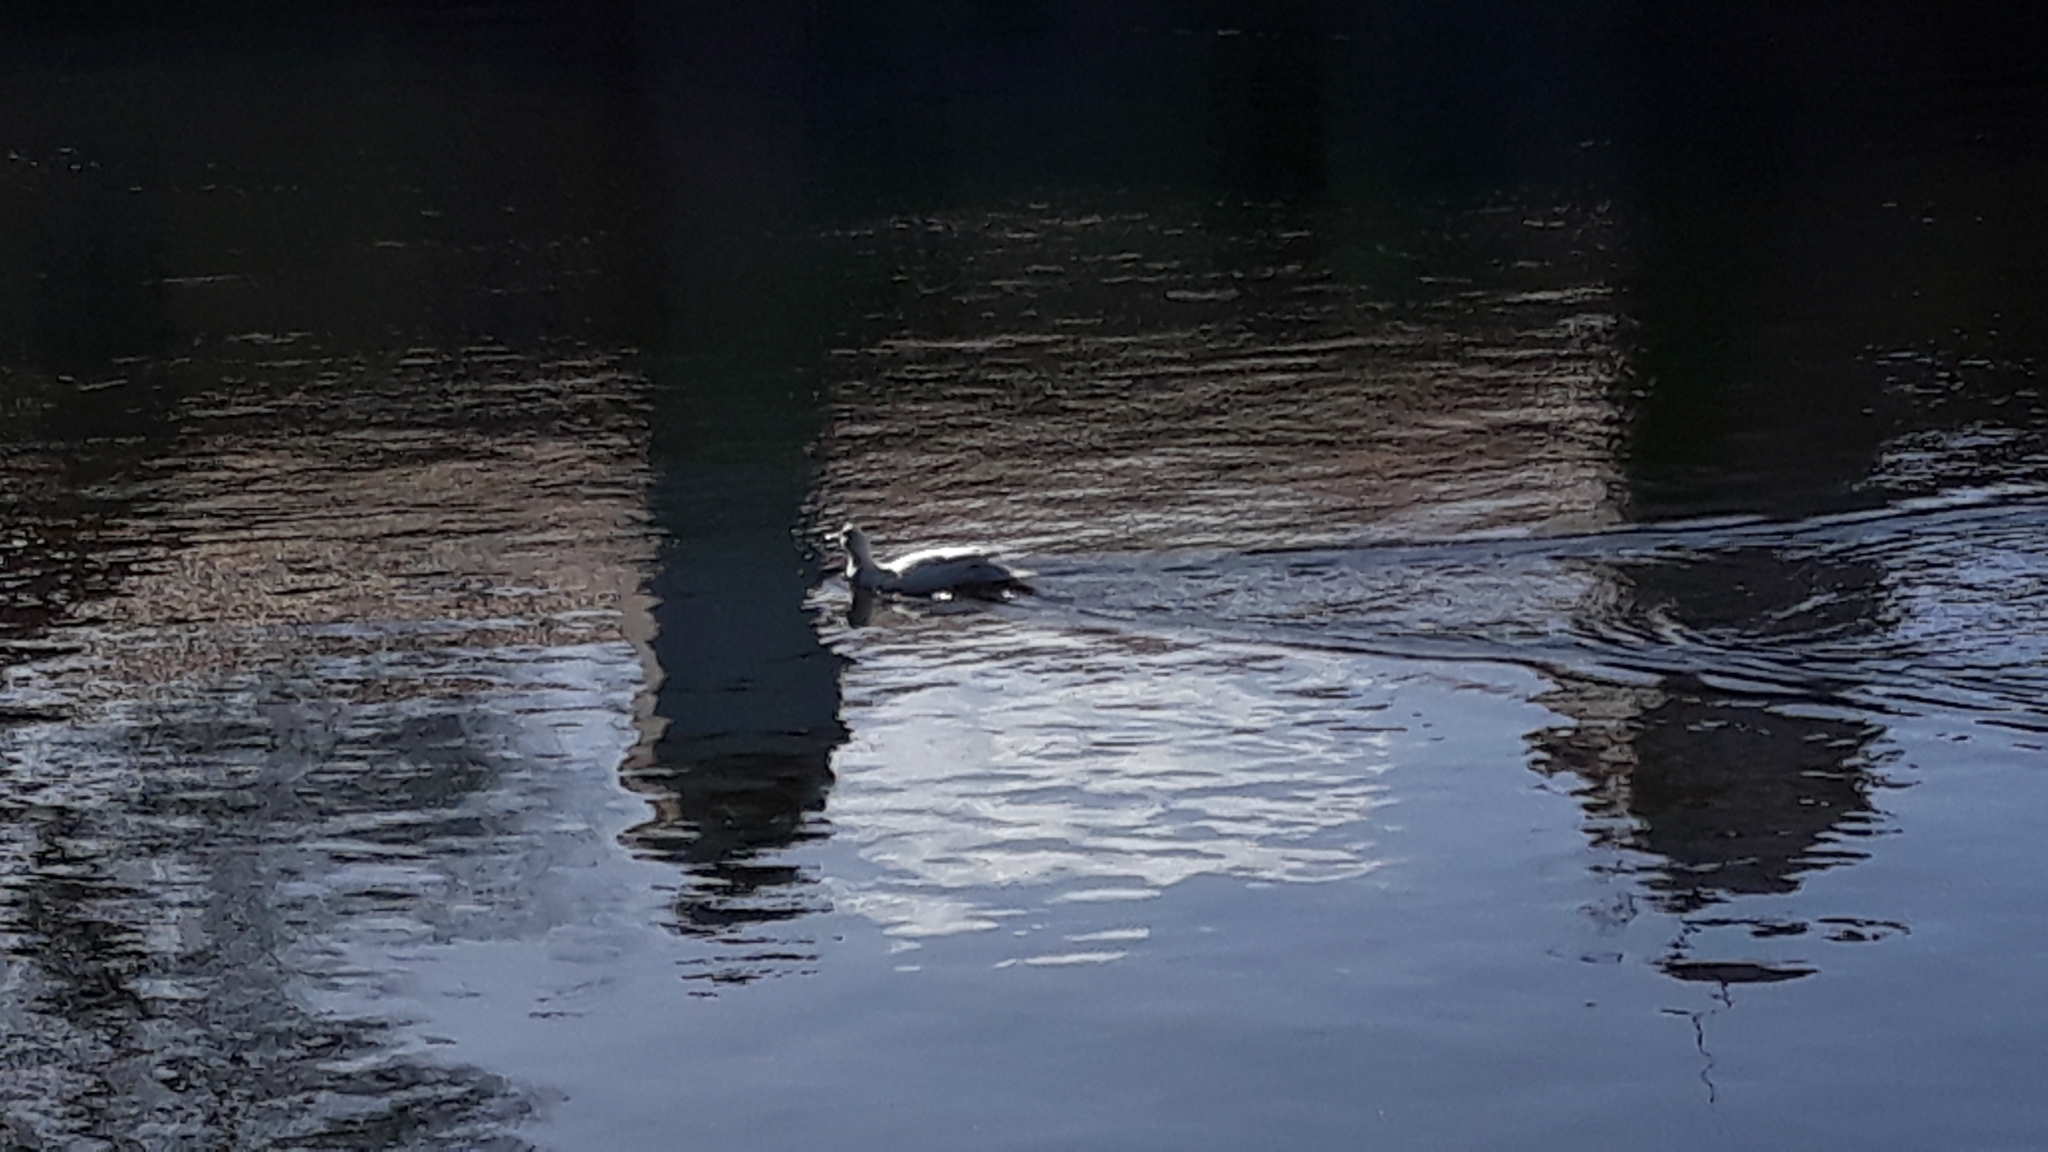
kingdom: Animalia
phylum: Chordata
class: Aves
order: Anseriformes
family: Anatidae
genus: Cairina
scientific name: Cairina moschata
